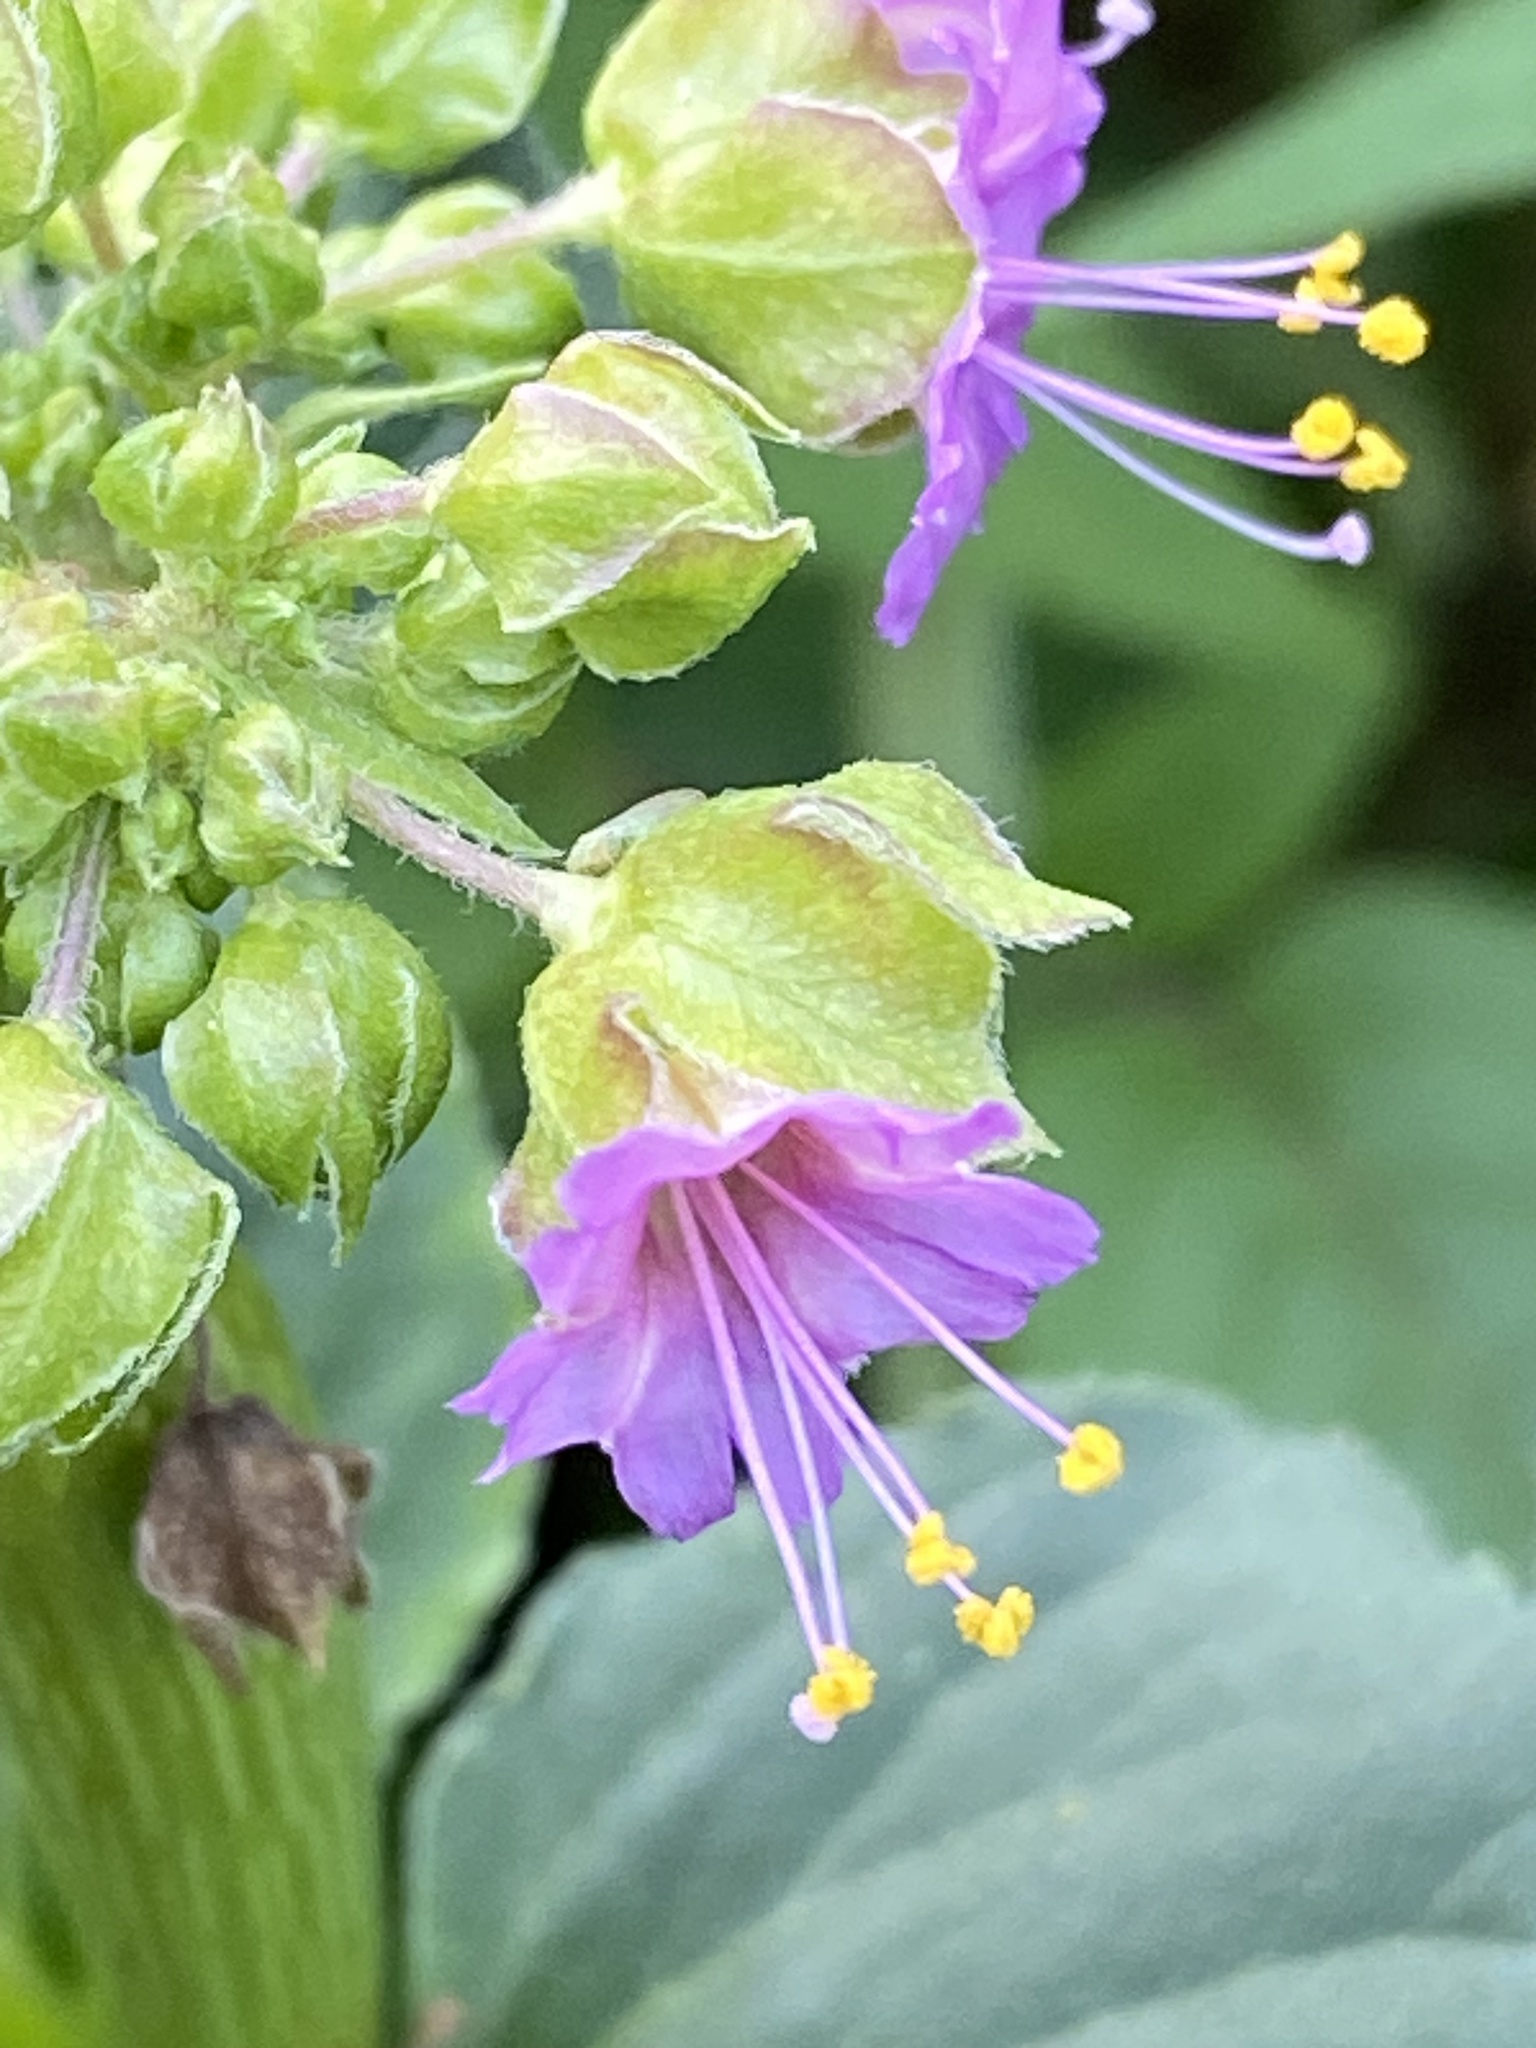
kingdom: Plantae
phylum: Tracheophyta
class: Magnoliopsida
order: Caryophyllales
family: Nyctaginaceae
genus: Mirabilis
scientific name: Mirabilis nyctaginea
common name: Umbrella wort
